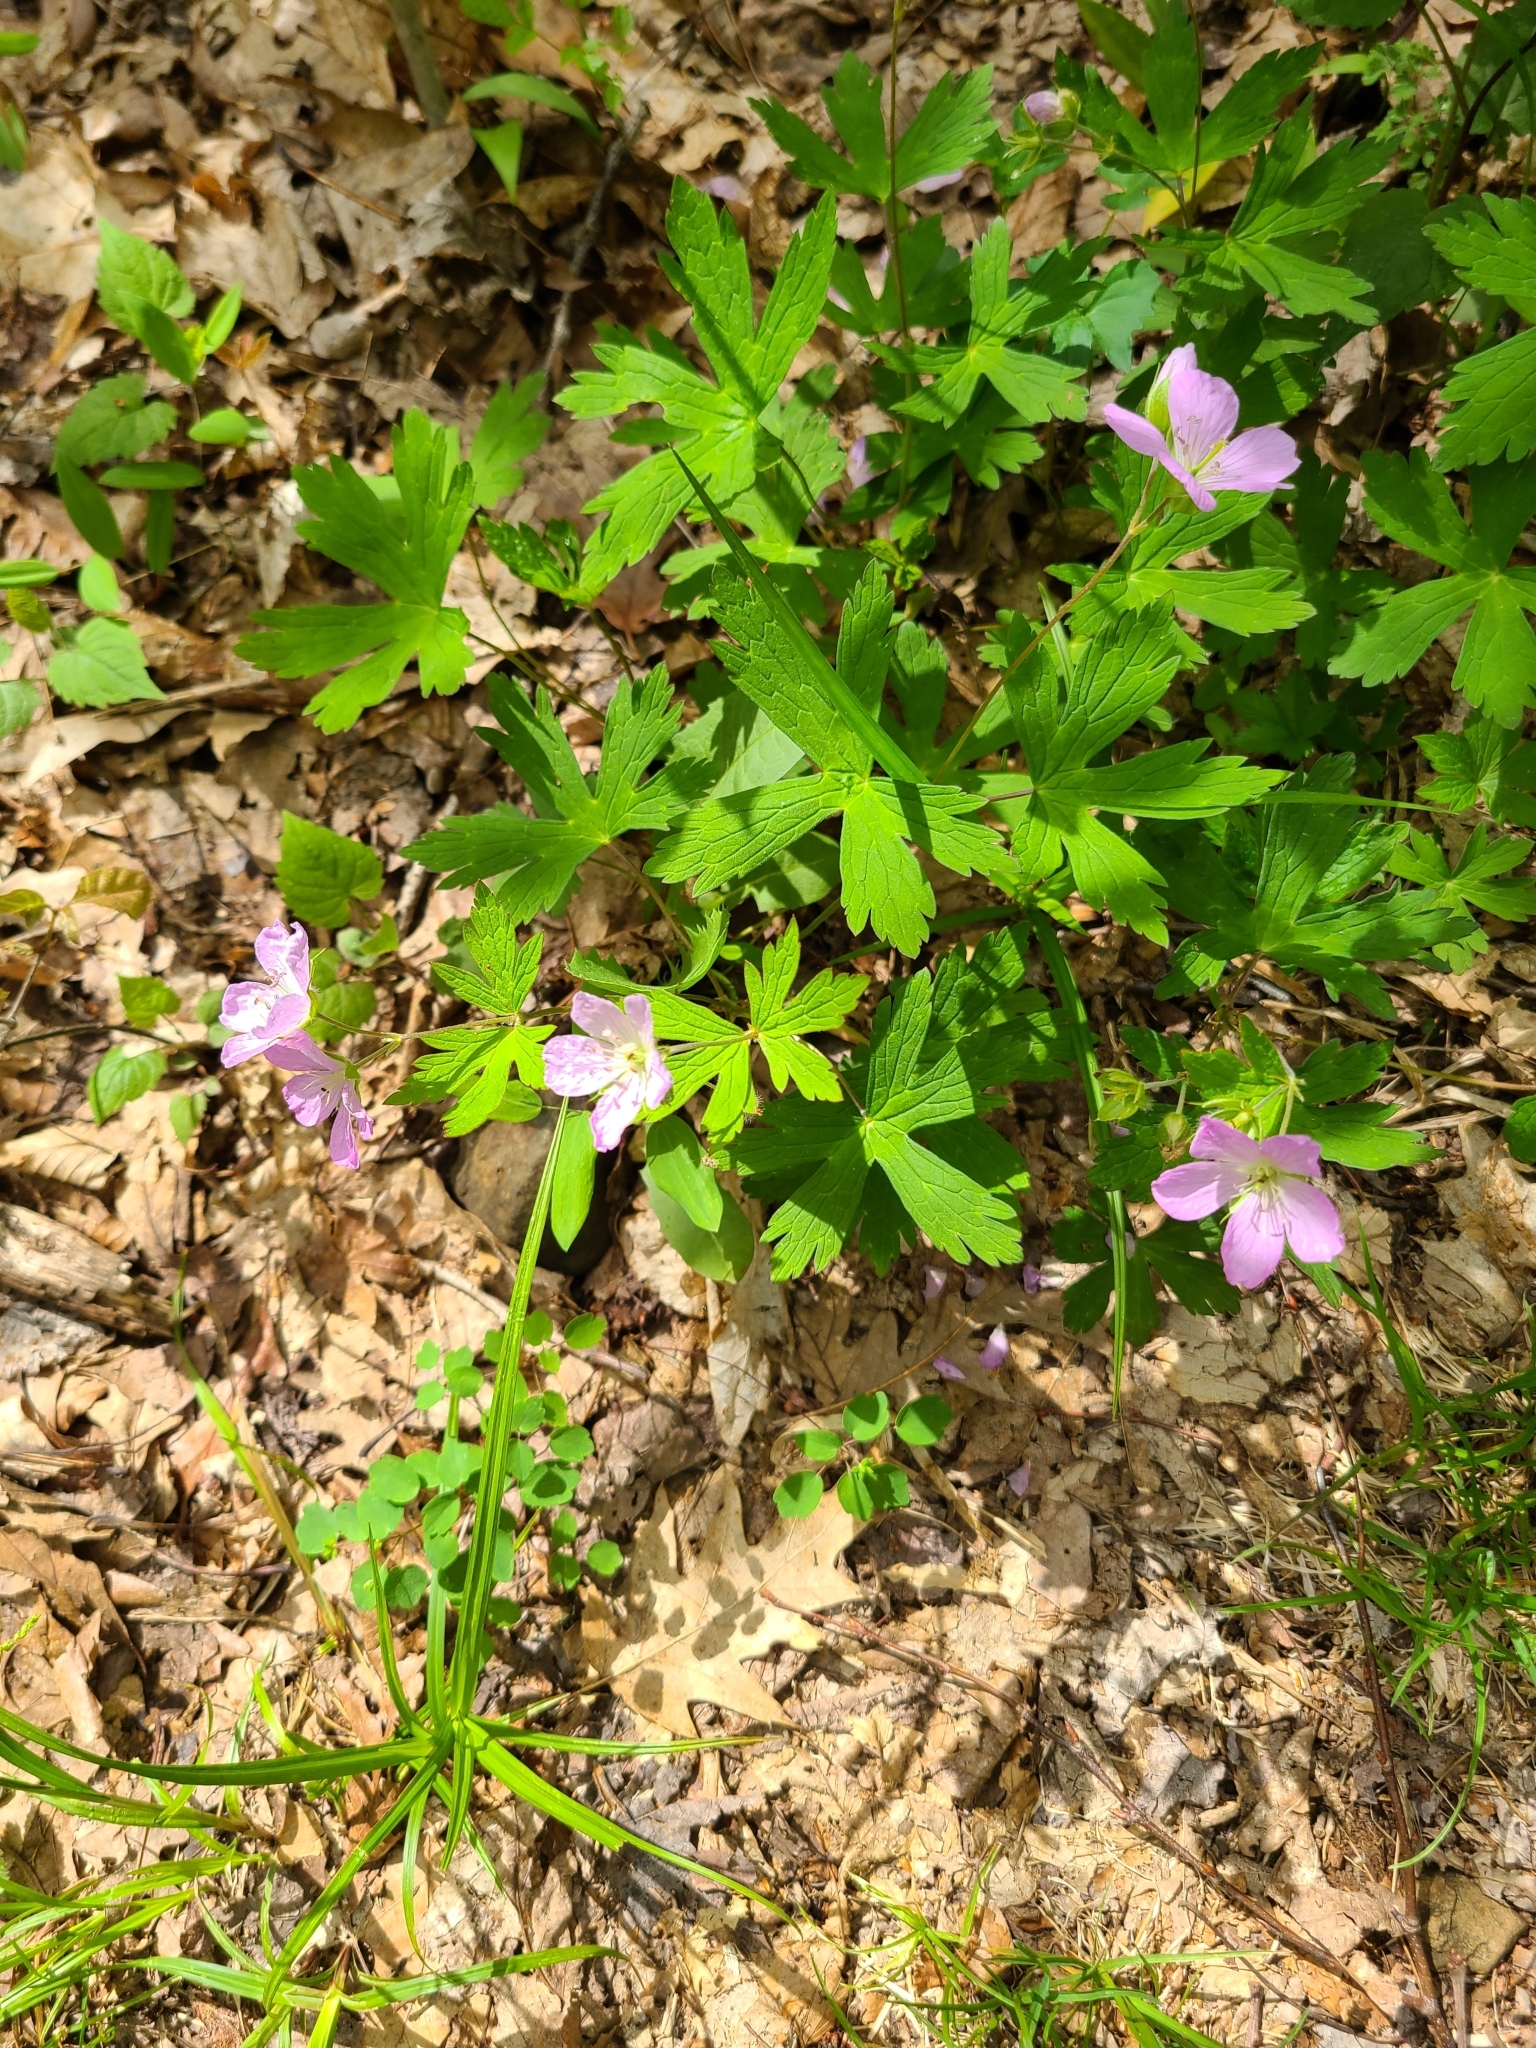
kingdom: Plantae
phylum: Tracheophyta
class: Magnoliopsida
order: Geraniales
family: Geraniaceae
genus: Geranium
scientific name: Geranium maculatum
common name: Spotted geranium
